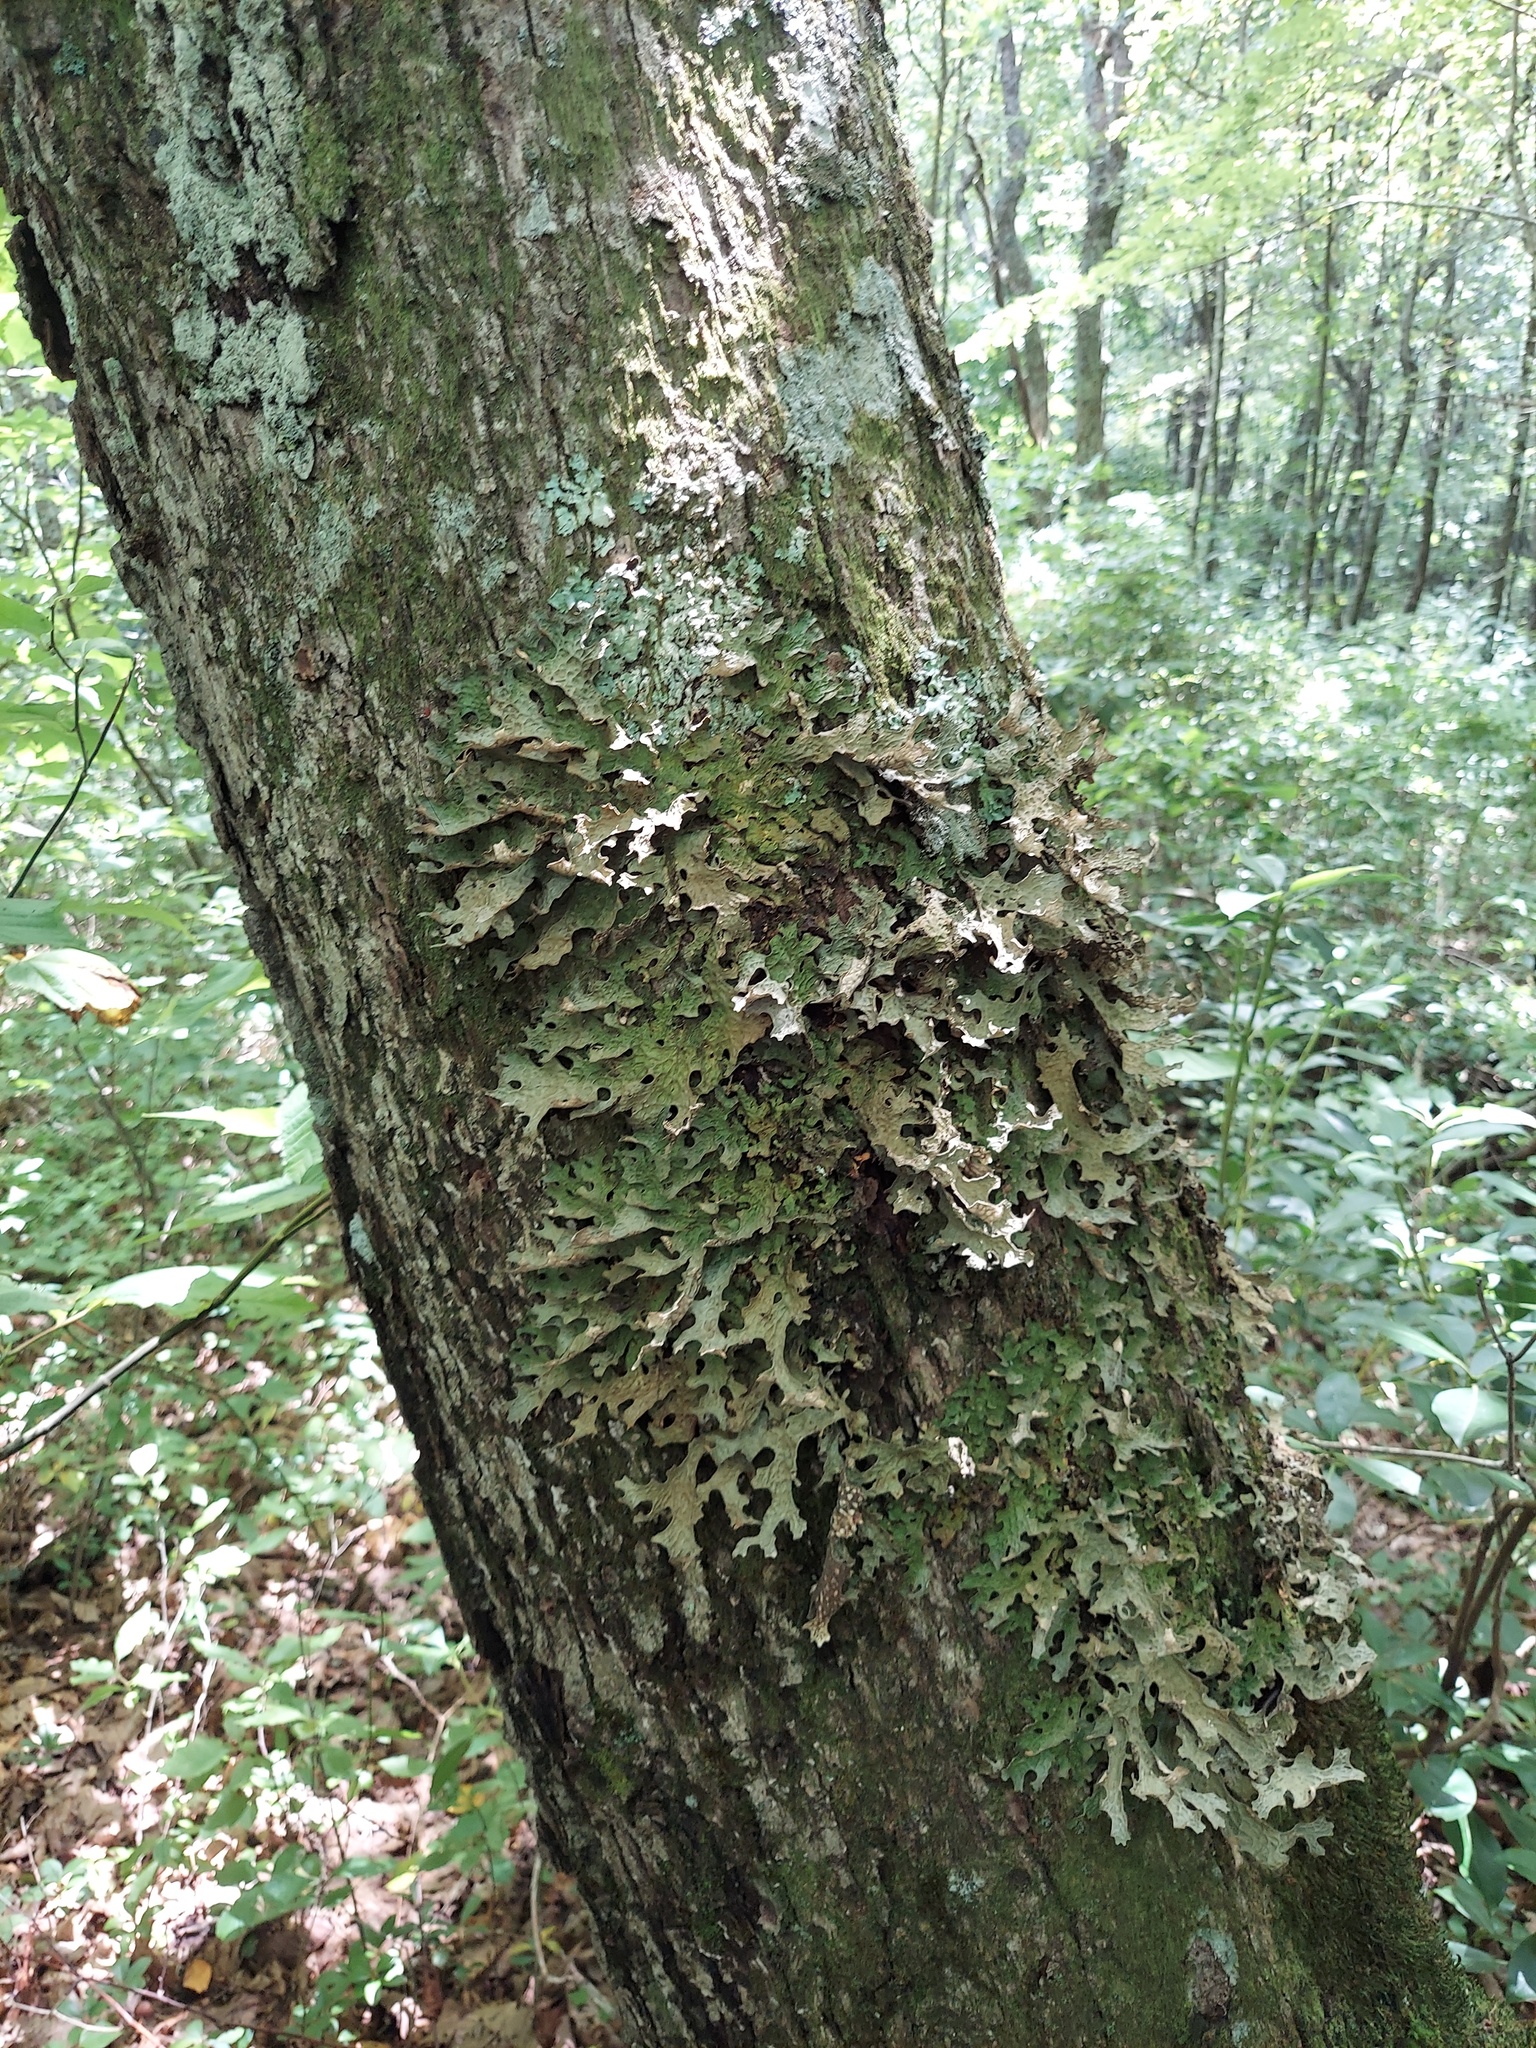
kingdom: Fungi
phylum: Ascomycota
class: Lecanoromycetes
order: Peltigerales
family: Lobariaceae
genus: Lobaria
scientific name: Lobaria pulmonaria
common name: Lungwort
